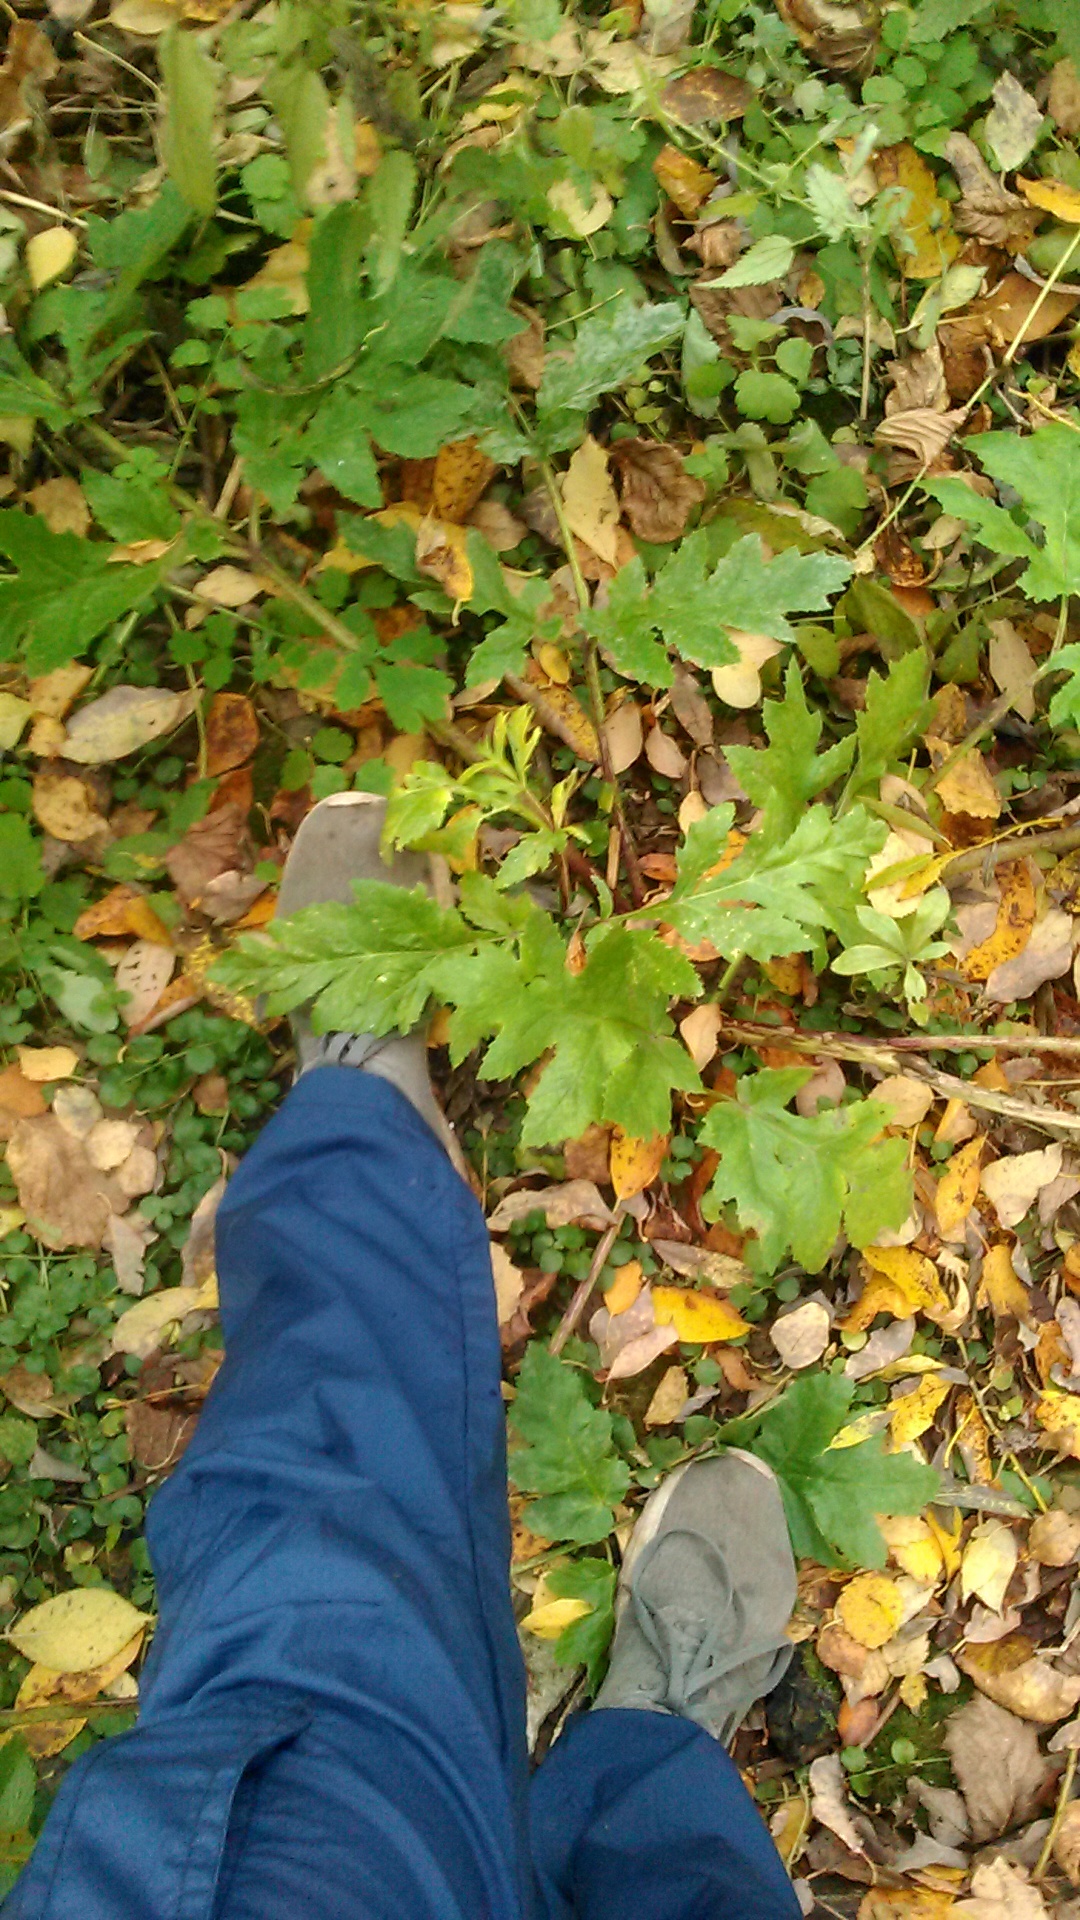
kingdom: Plantae
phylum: Tracheophyta
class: Magnoliopsida
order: Apiales
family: Apiaceae
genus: Heracleum
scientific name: Heracleum sosnowskyi
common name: Sosnowsky's hogweed
